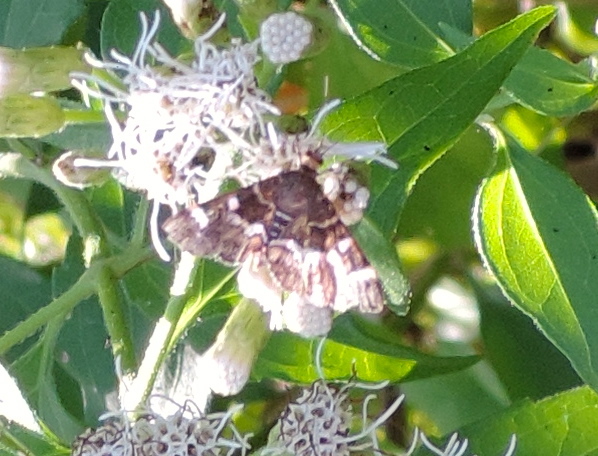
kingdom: Animalia
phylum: Arthropoda
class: Insecta
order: Lepidoptera
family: Crambidae
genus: Hymenia
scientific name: Hymenia perspectalis
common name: Spotted beet webworm
